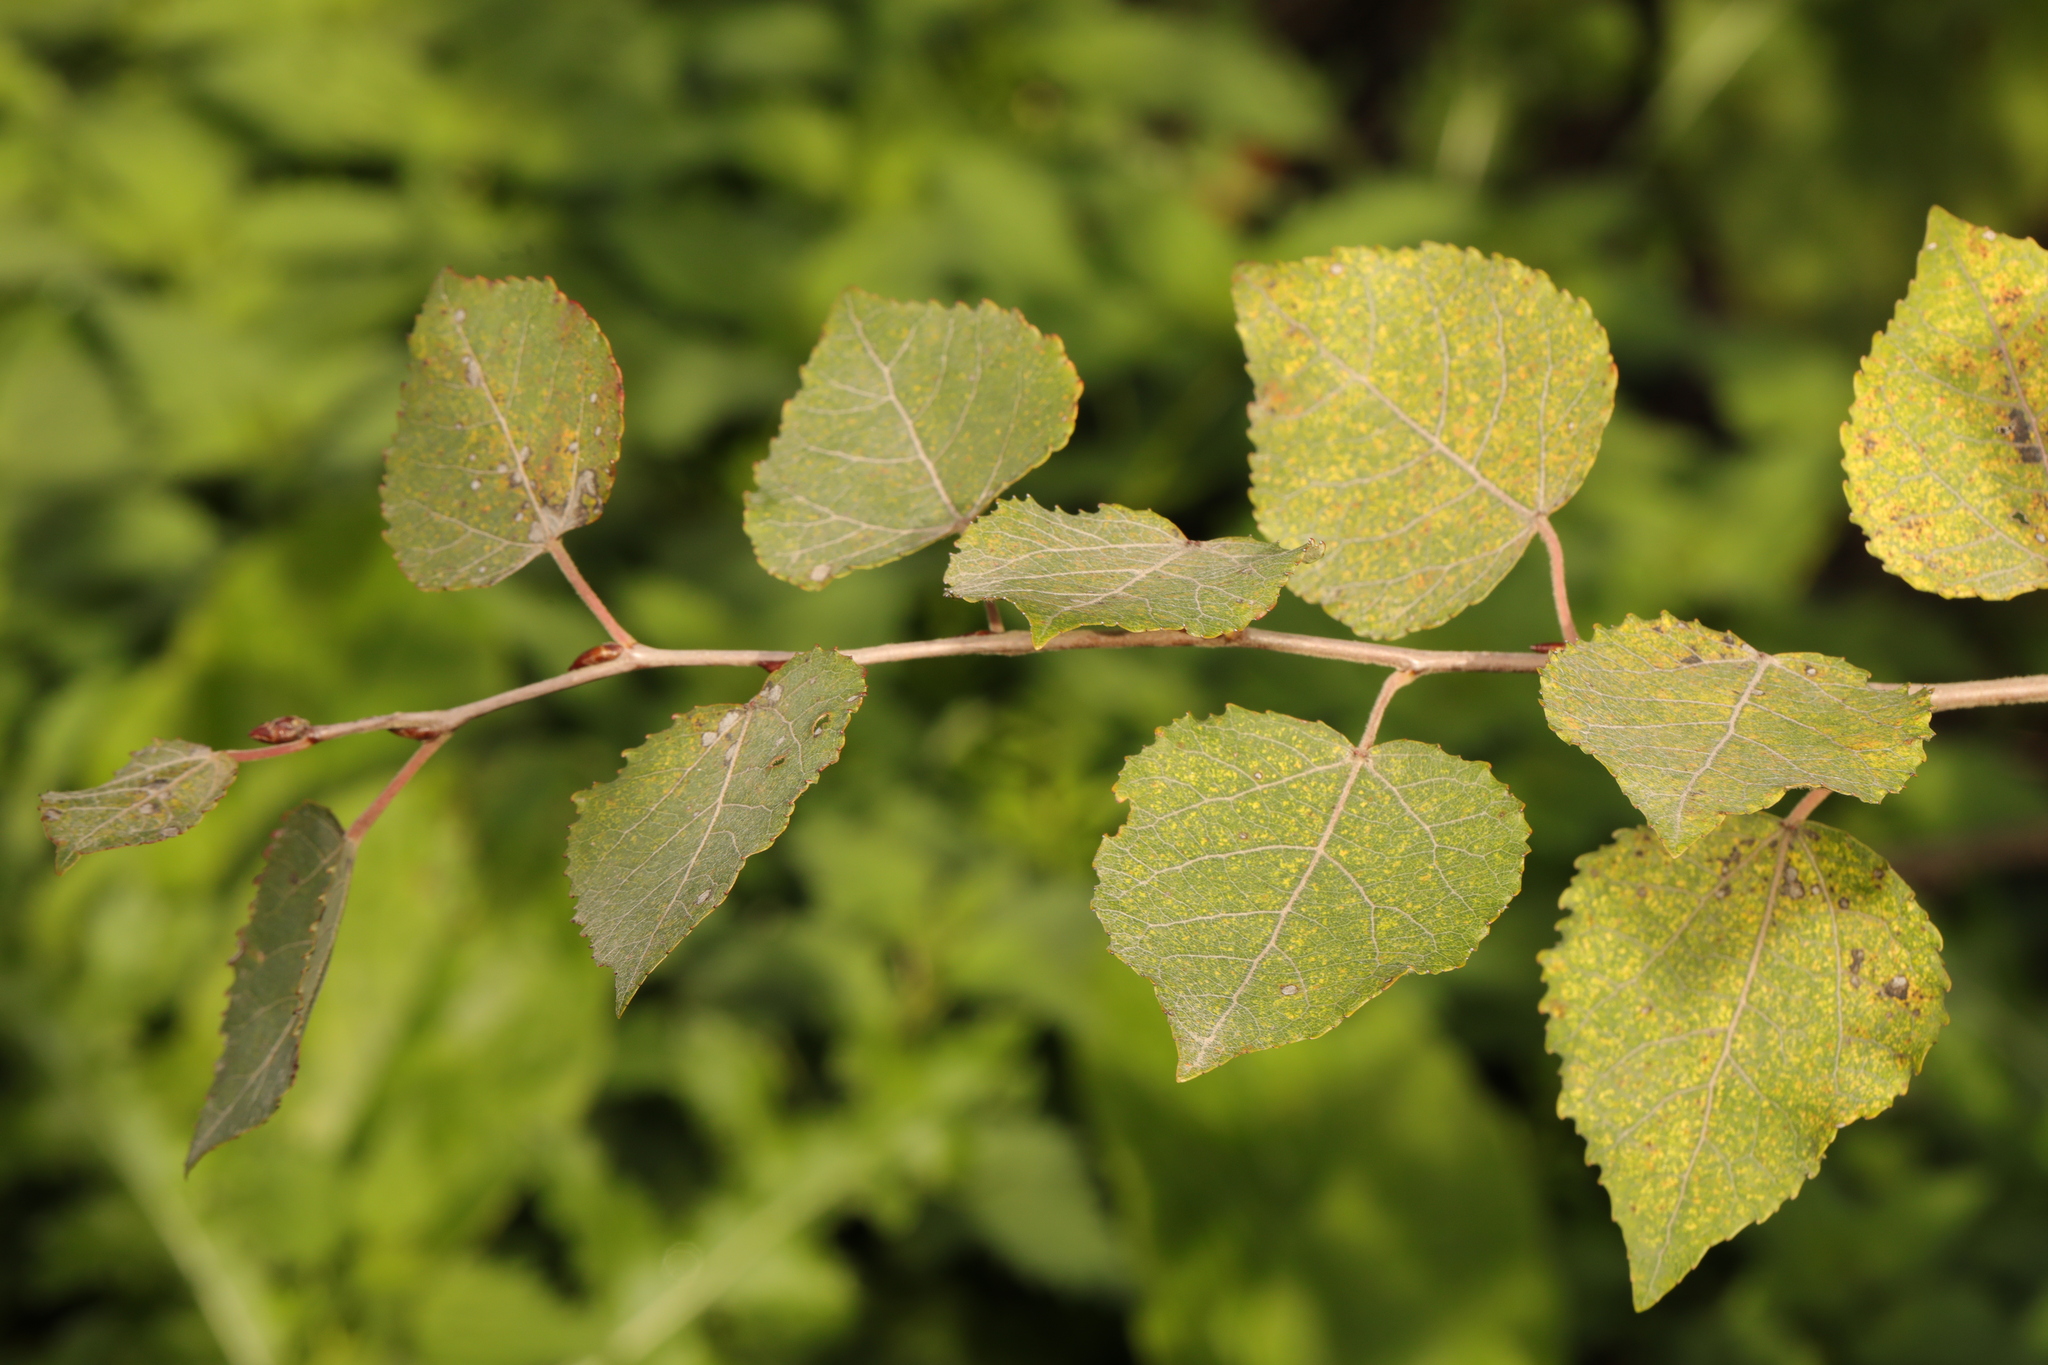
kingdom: Plantae
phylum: Tracheophyta
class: Magnoliopsida
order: Malpighiales
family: Salicaceae
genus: Populus
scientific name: Populus tremula
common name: European aspen
